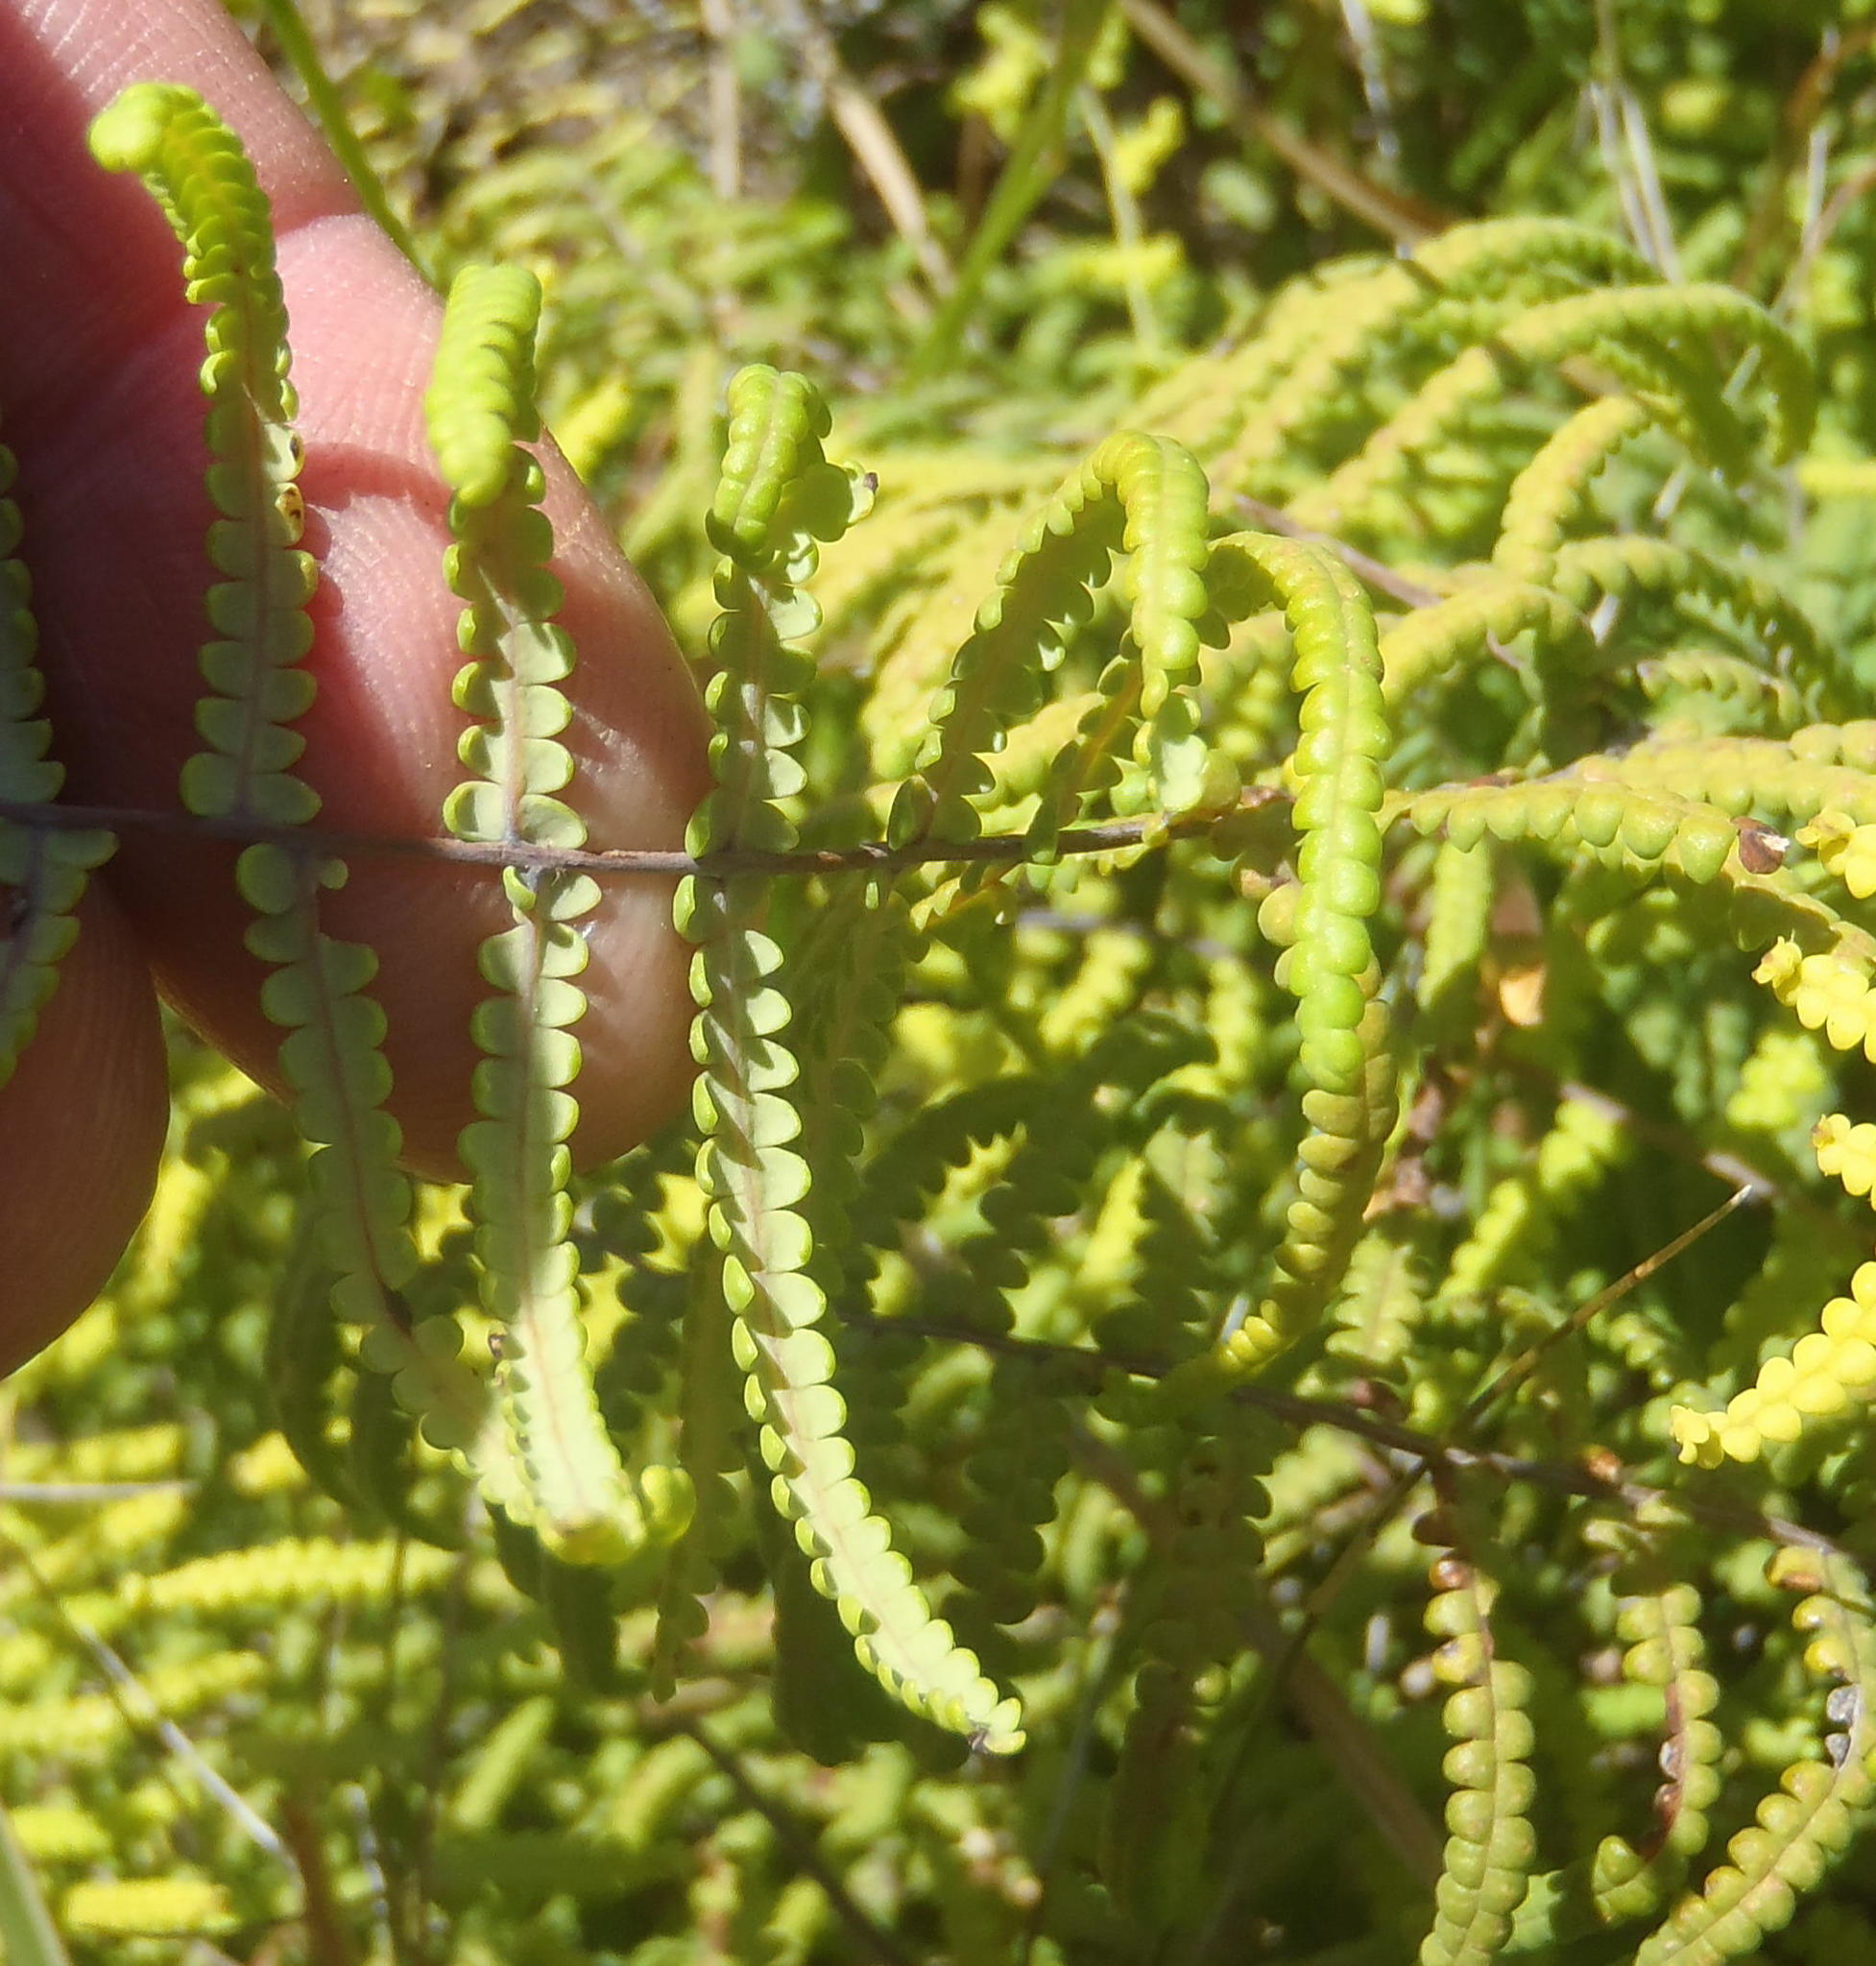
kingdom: Plantae
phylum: Tracheophyta
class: Polypodiopsida
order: Gleicheniales
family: Gleicheniaceae
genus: Gleichenia
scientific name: Gleichenia polypodioides
